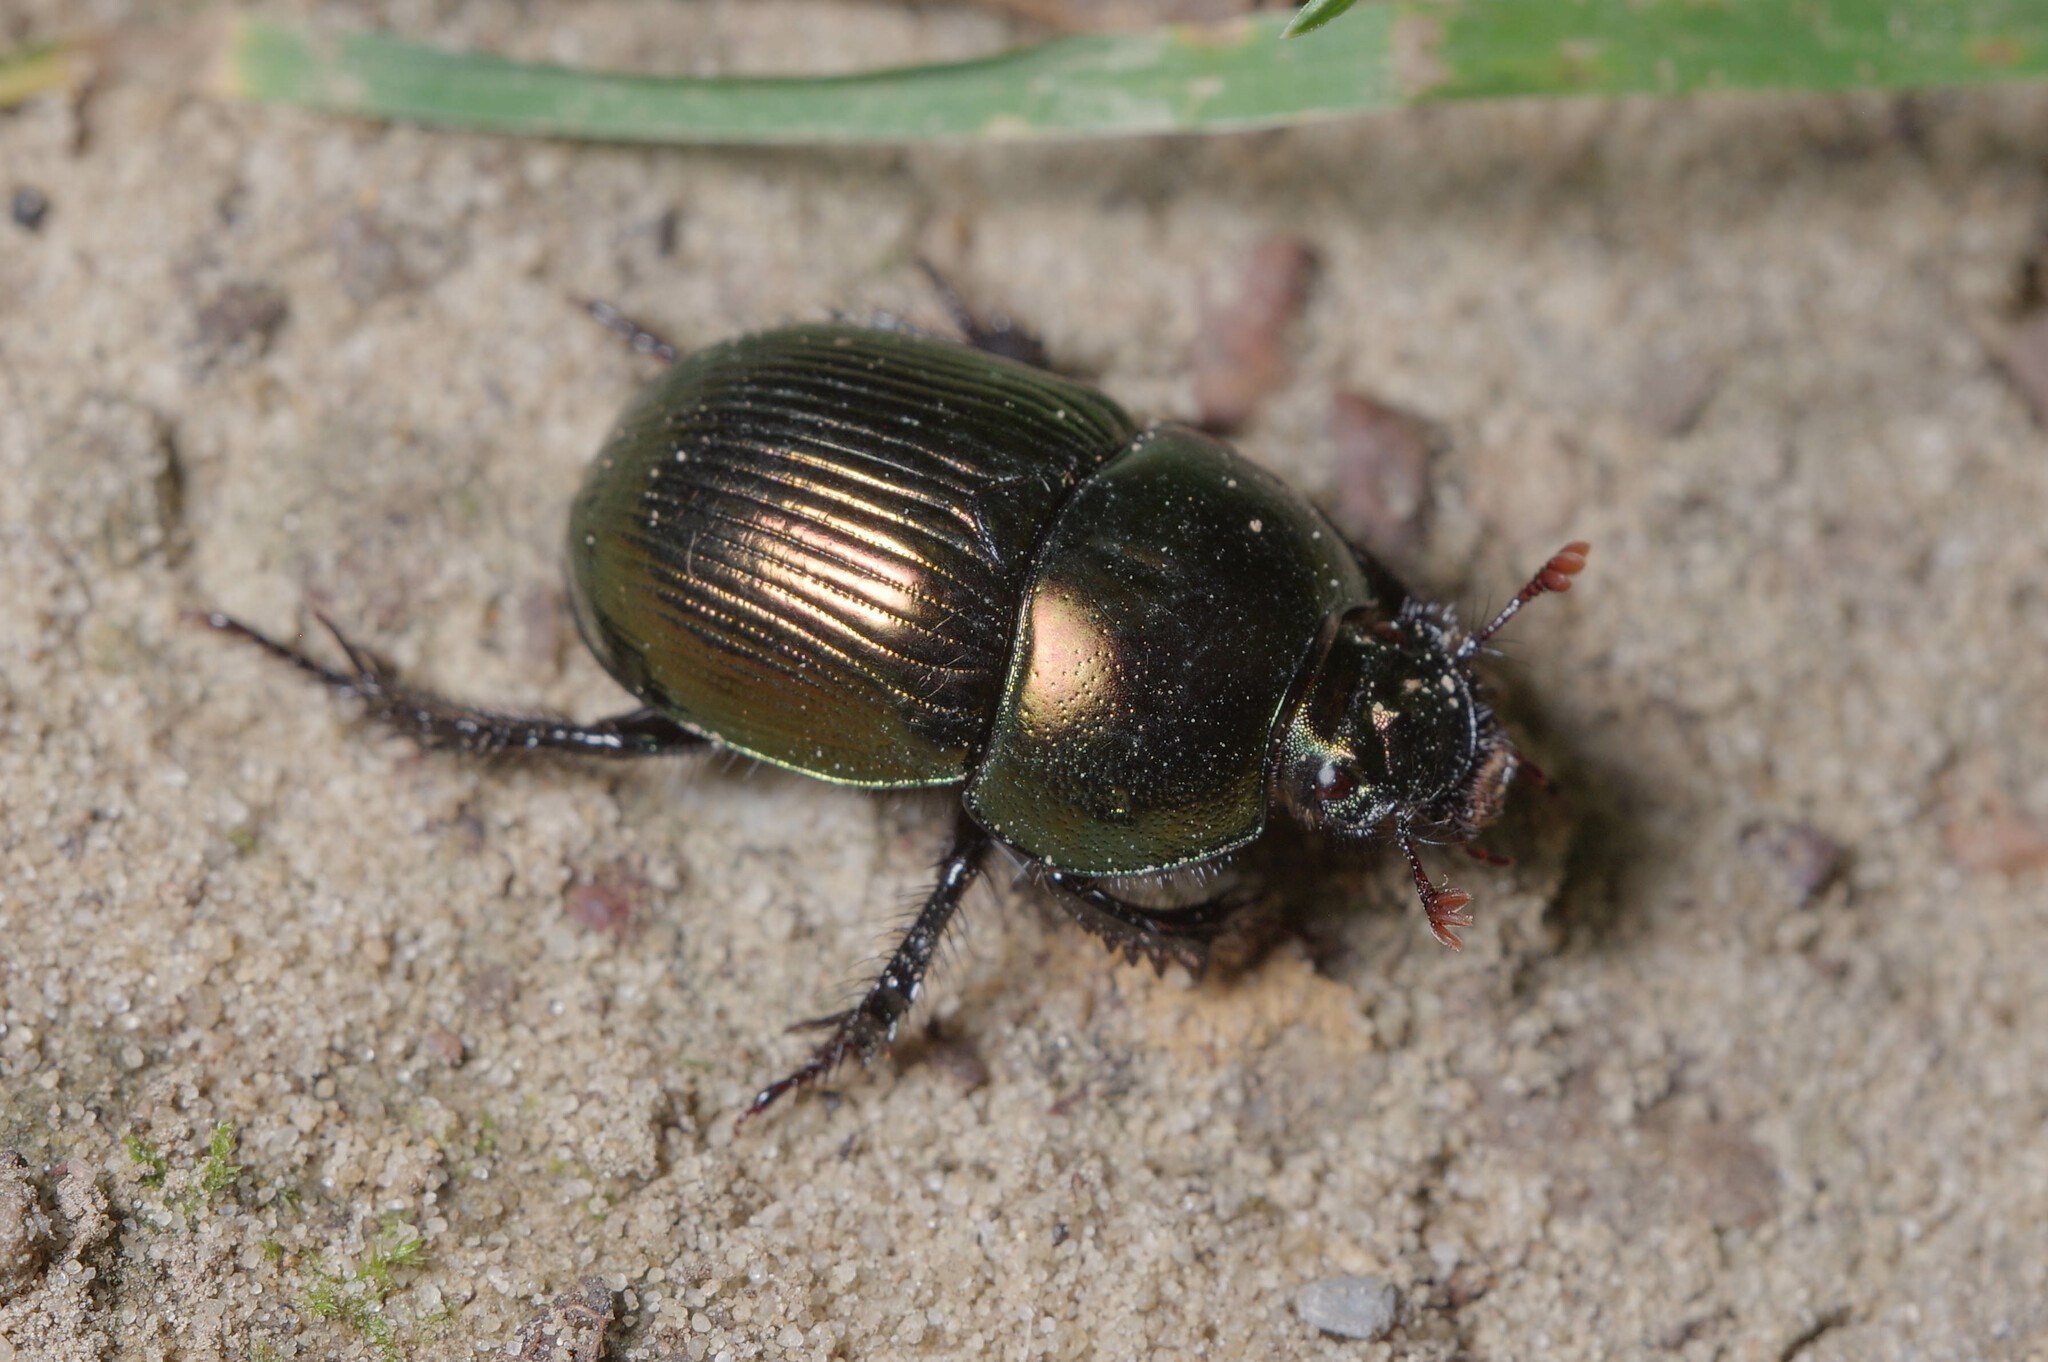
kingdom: Animalia
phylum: Arthropoda
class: Insecta
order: Coleoptera
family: Geotrupidae
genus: Geotrupes
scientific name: Geotrupes splendidus
